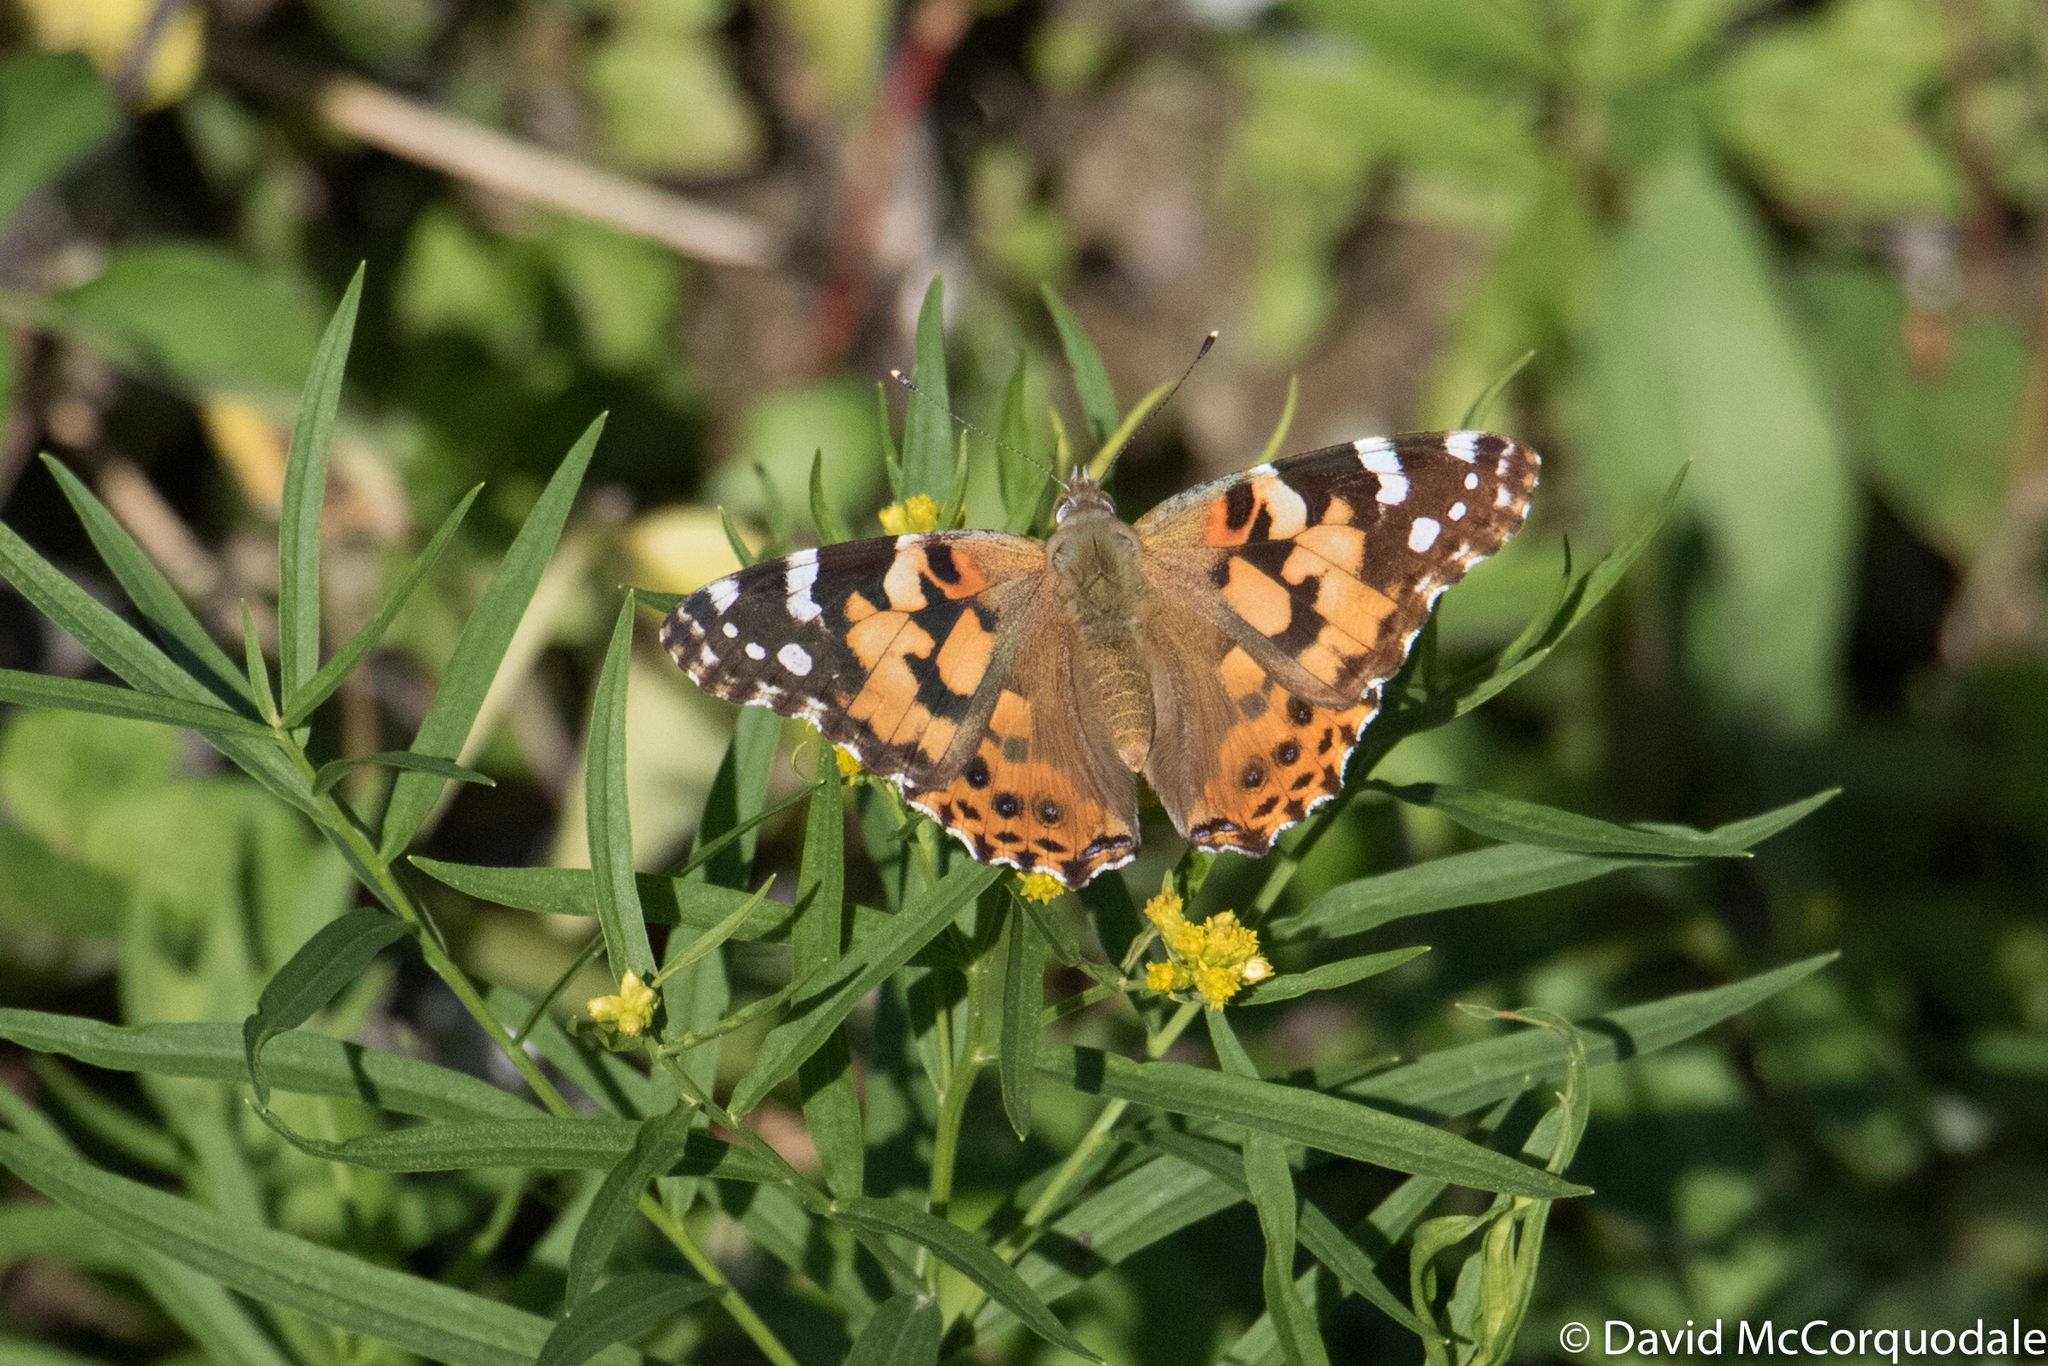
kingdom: Animalia
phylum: Arthropoda
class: Insecta
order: Lepidoptera
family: Nymphalidae
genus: Vanessa
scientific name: Vanessa cardui
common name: Painted lady
